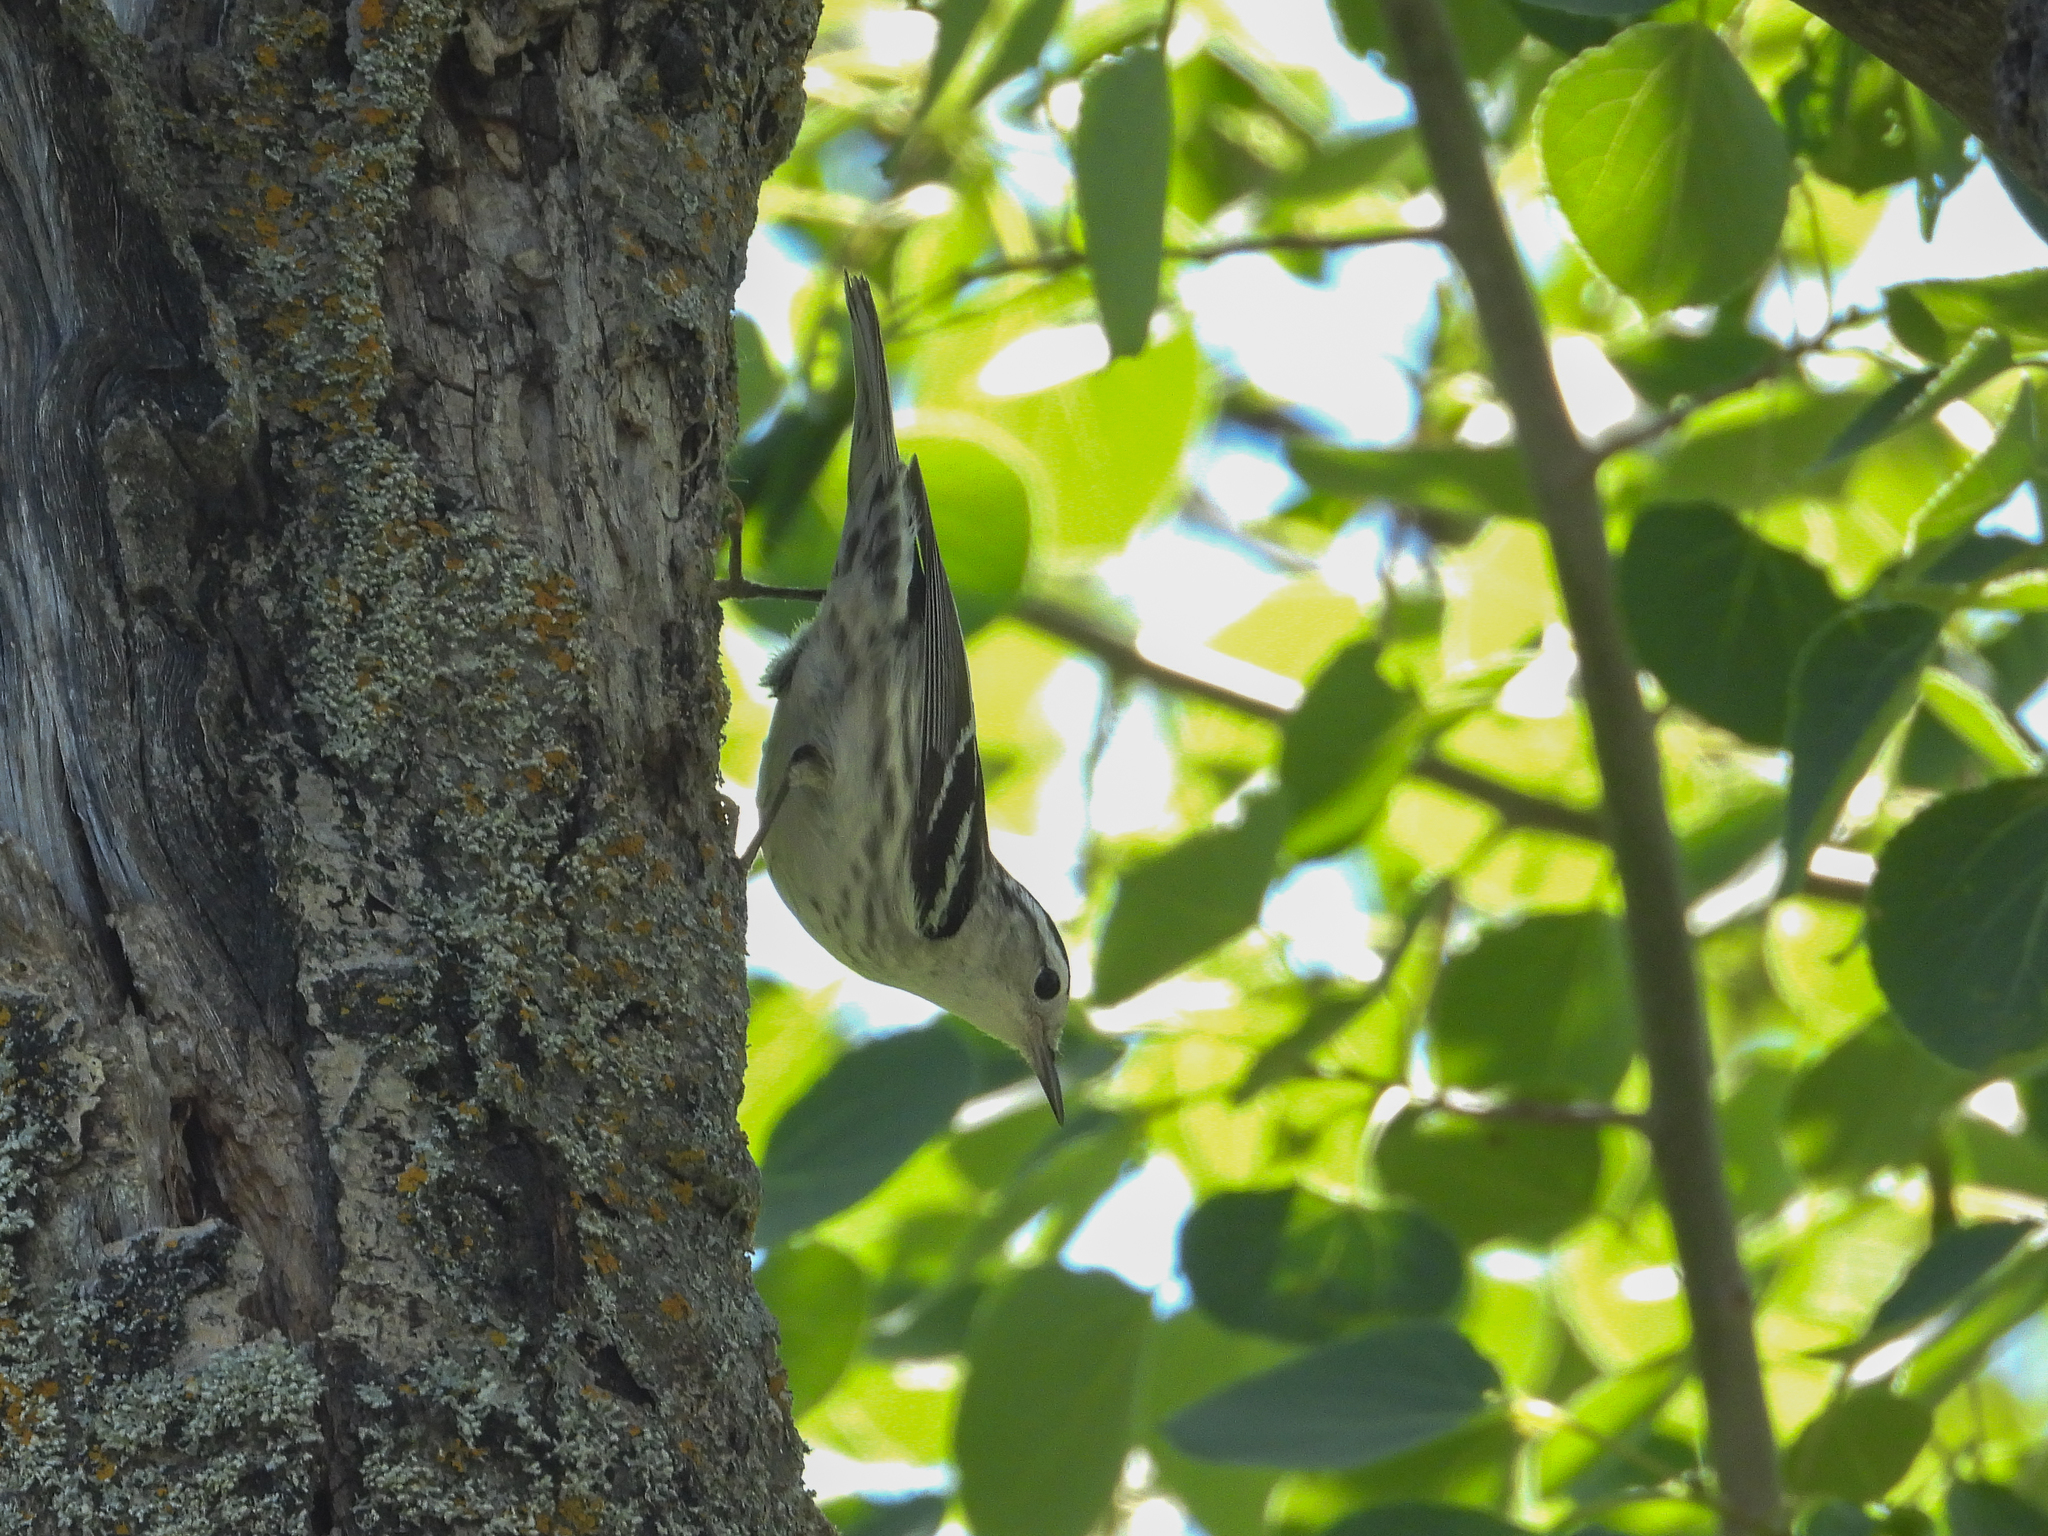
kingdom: Animalia
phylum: Chordata
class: Aves
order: Passeriformes
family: Parulidae
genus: Mniotilta
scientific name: Mniotilta varia
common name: Black-and-white warbler
